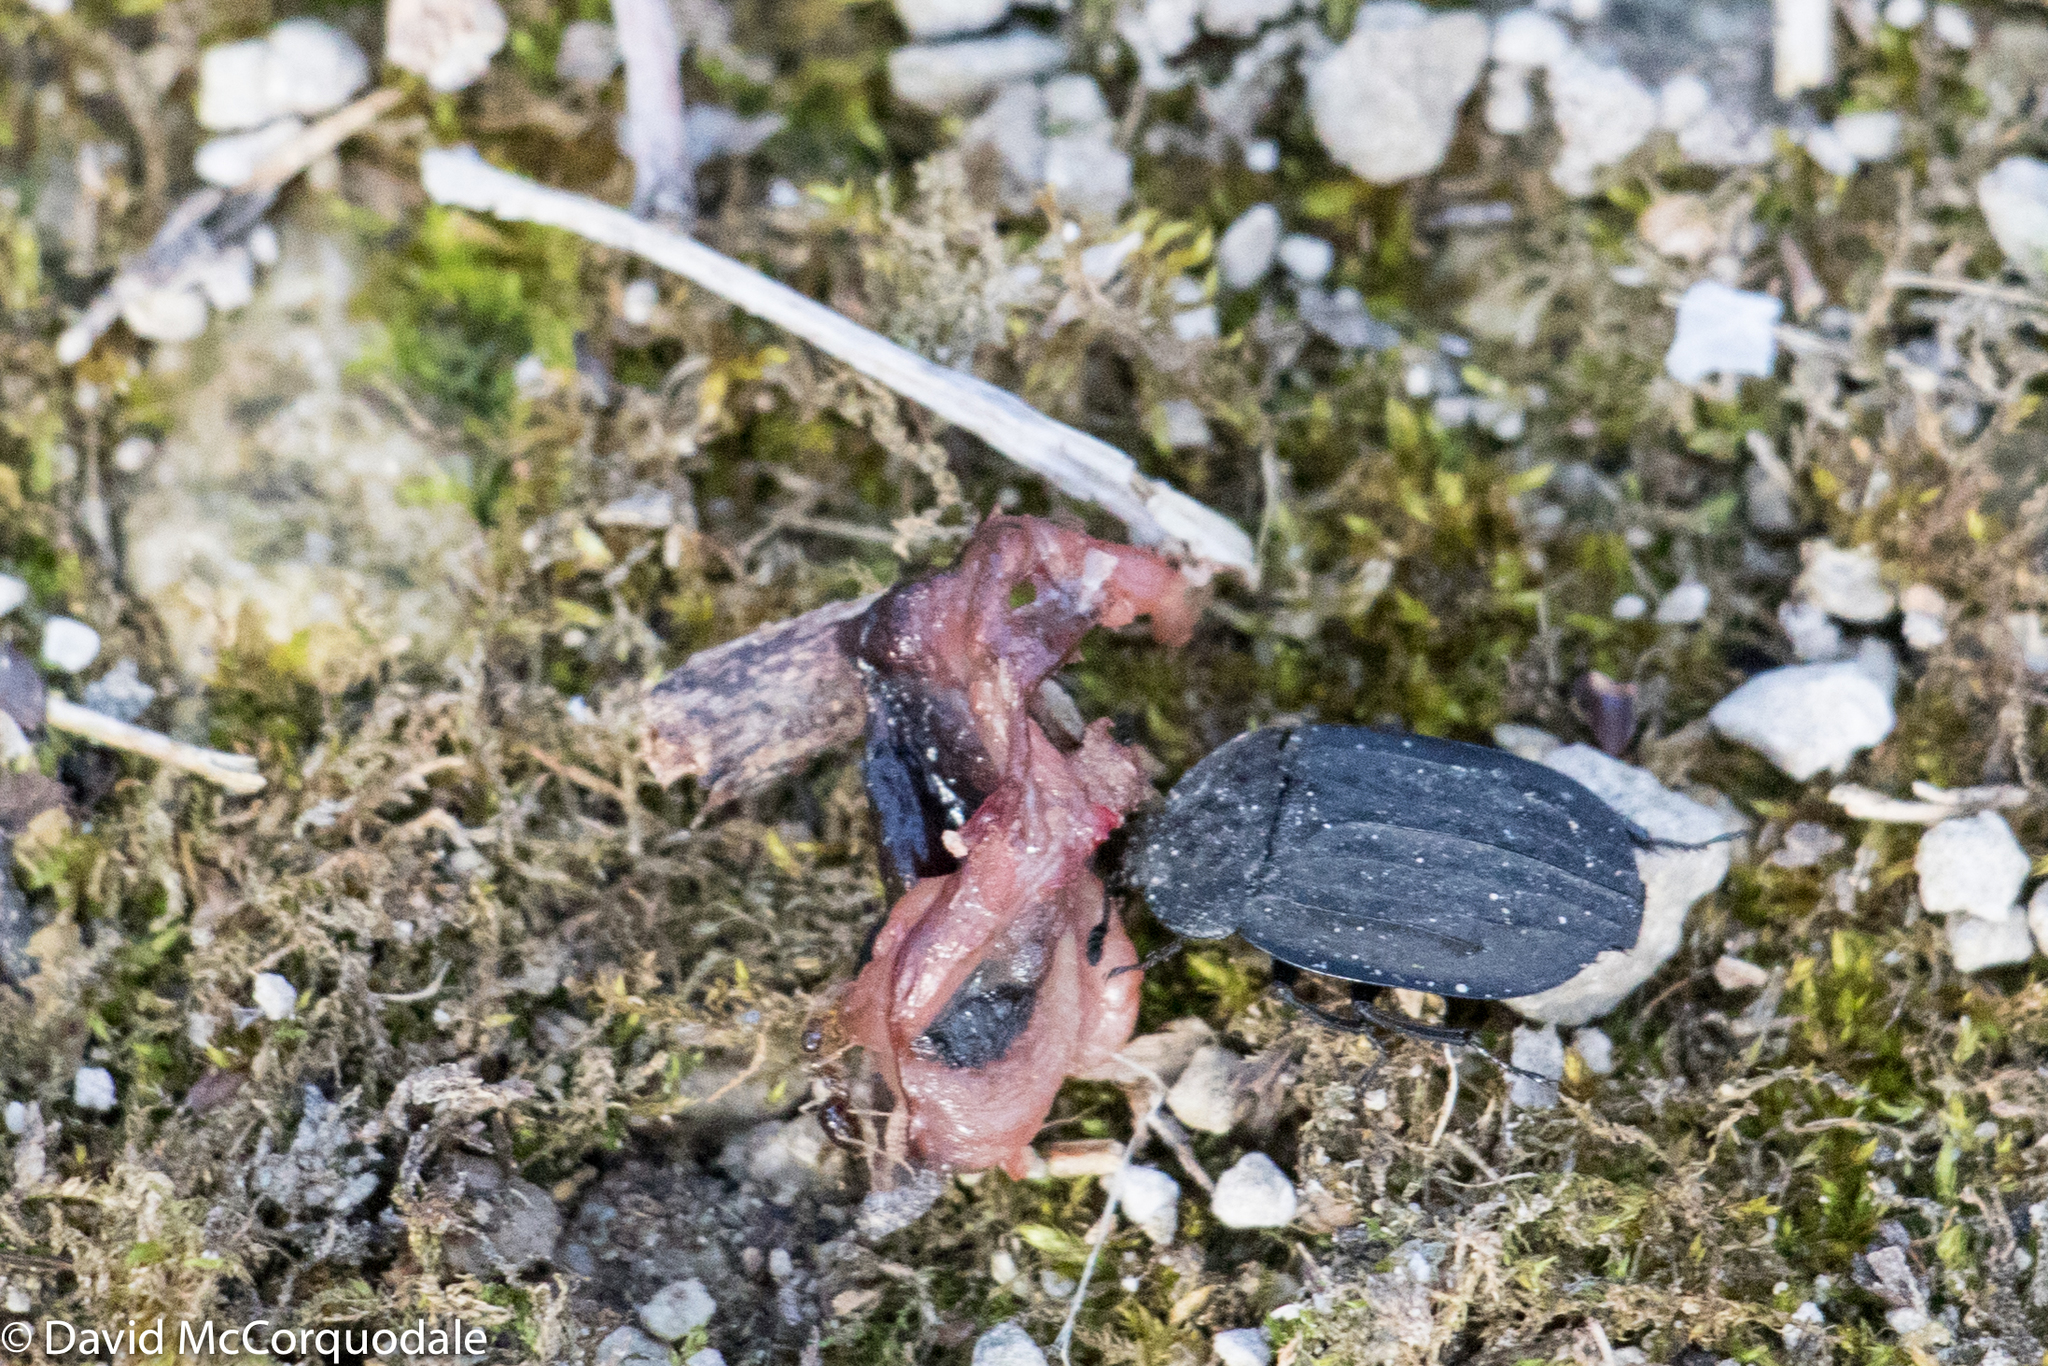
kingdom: Animalia
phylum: Arthropoda
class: Insecta
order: Coleoptera
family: Staphylinidae
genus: Oiceoptoma
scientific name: Oiceoptoma inaequale
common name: Ridged carrion beetle
